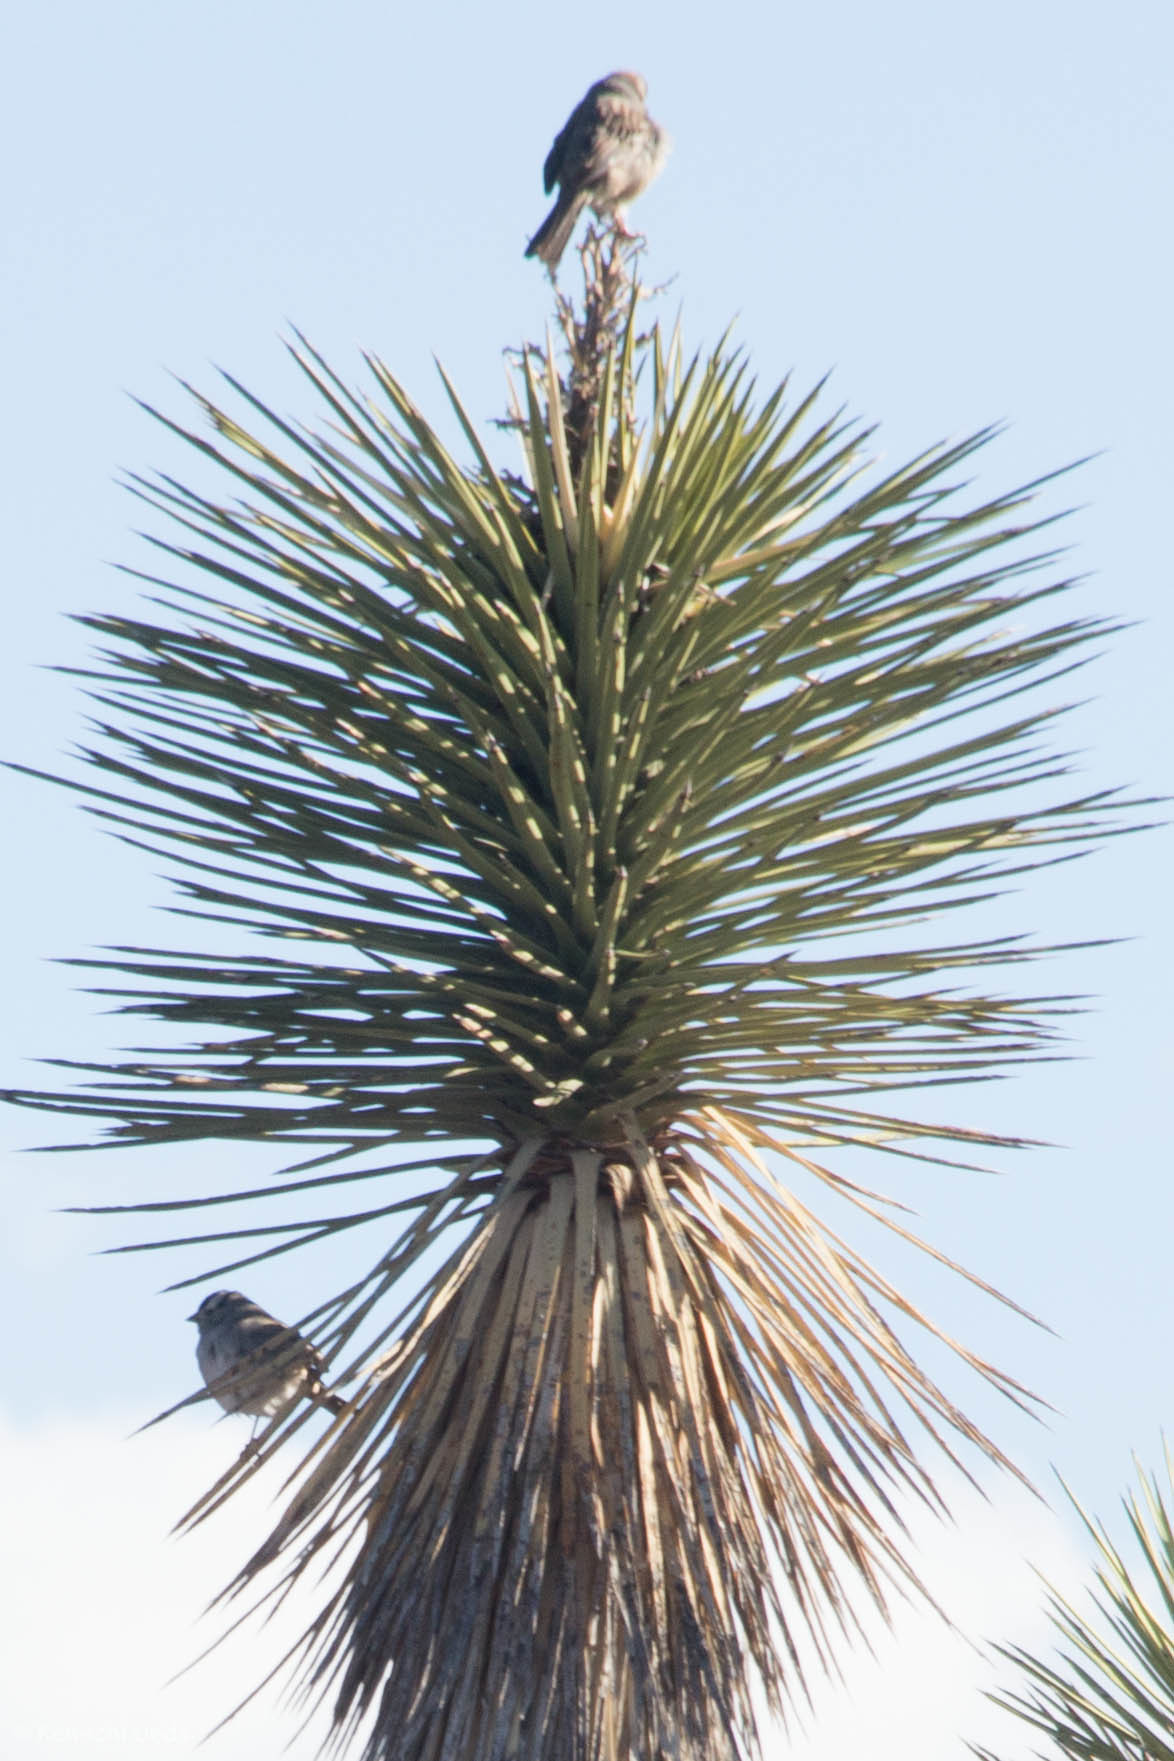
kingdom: Animalia
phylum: Chordata
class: Aves
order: Passeriformes
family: Passerellidae
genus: Zonotrichia
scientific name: Zonotrichia leucophrys
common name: White-crowned sparrow
